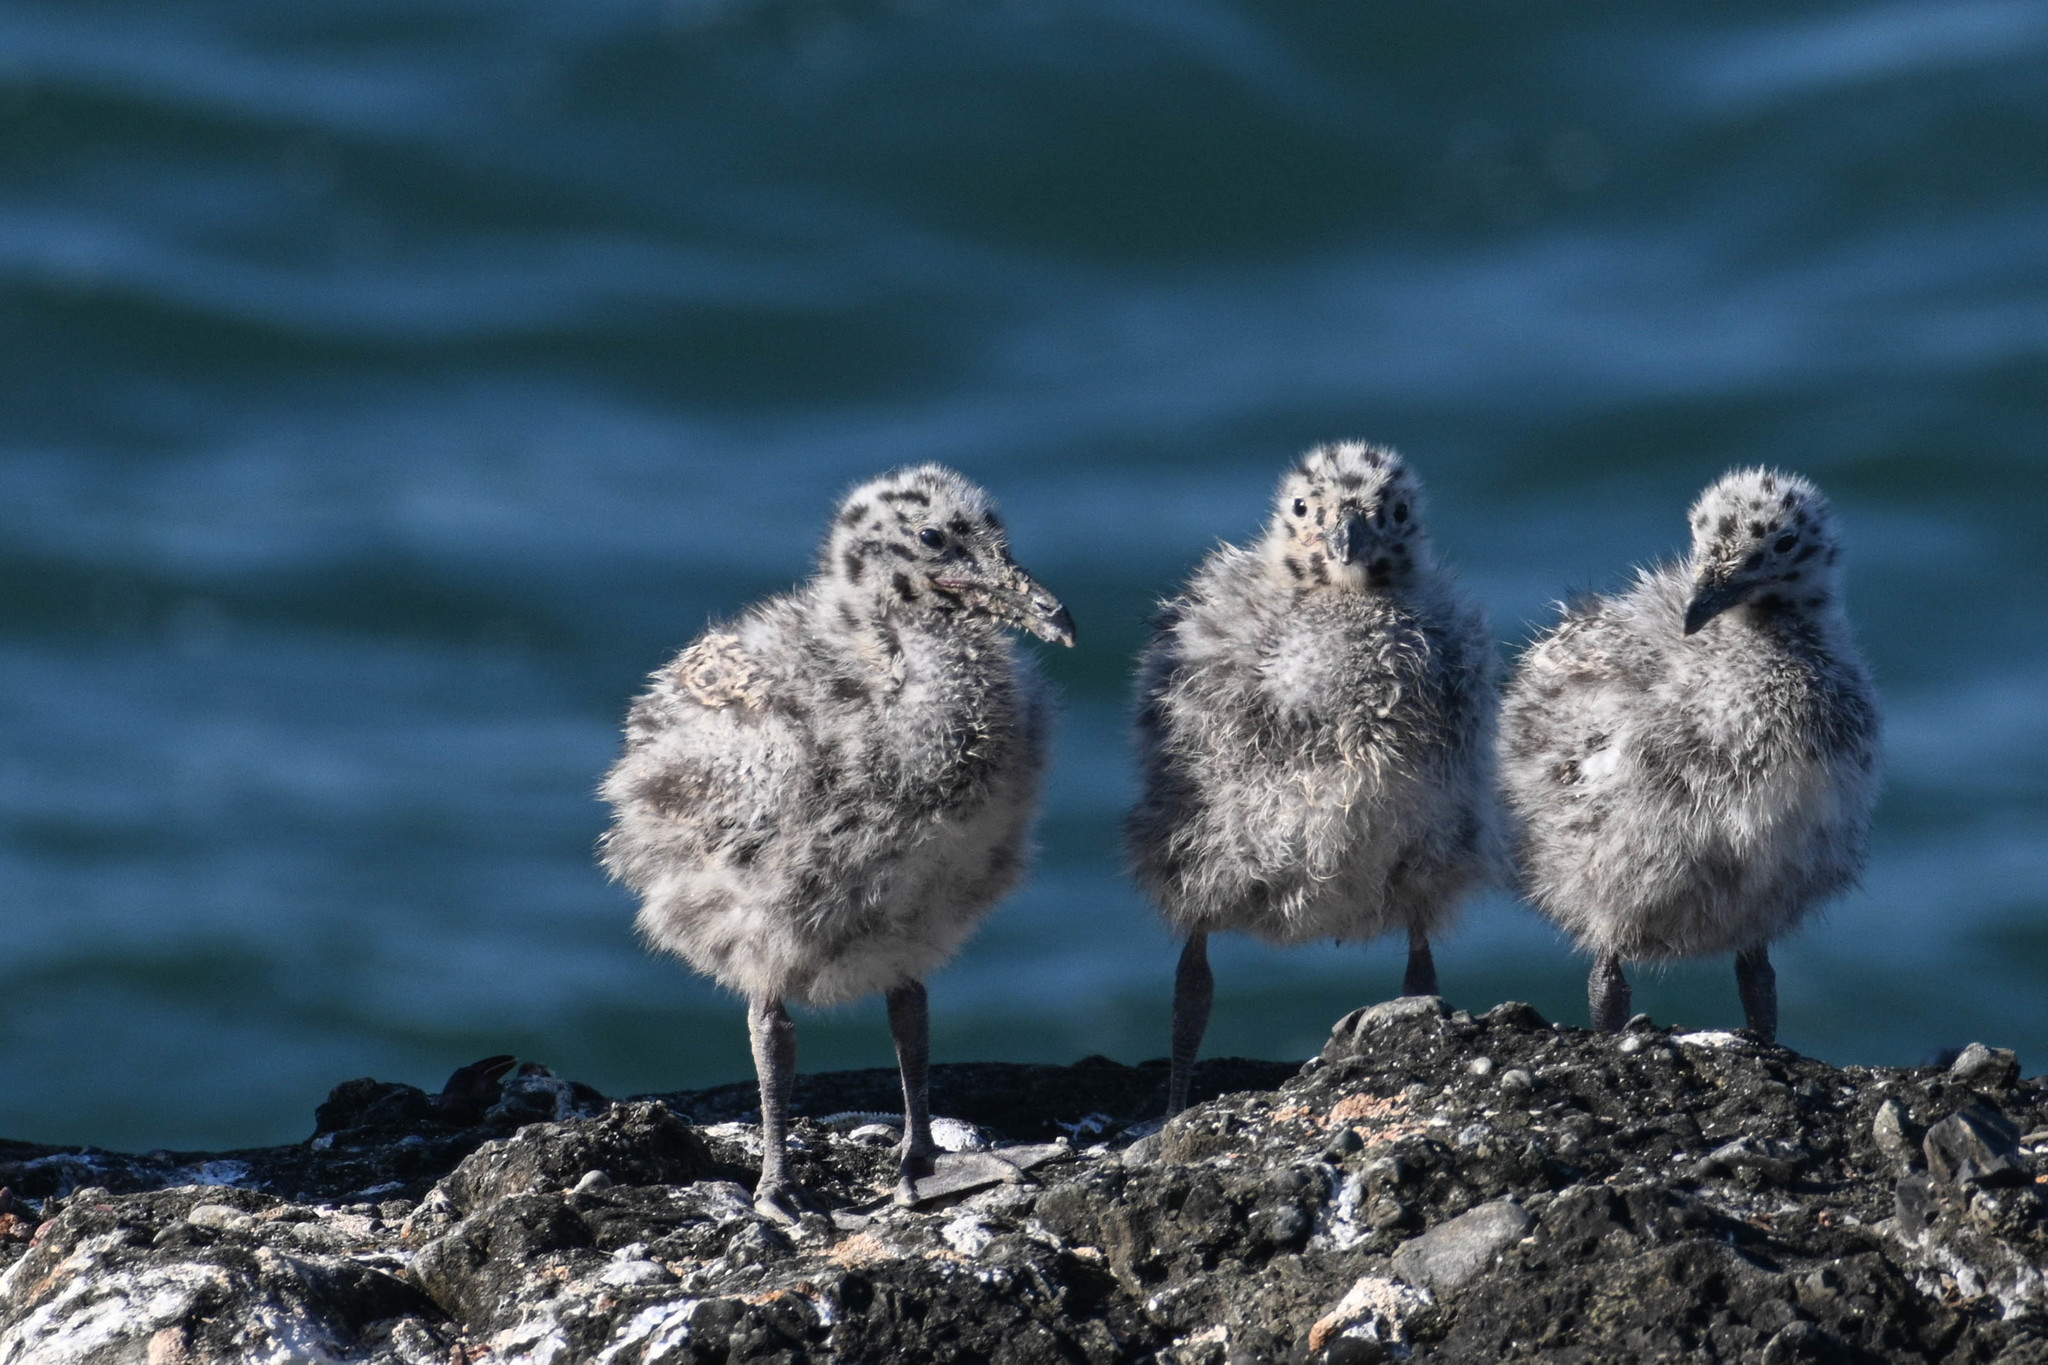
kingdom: Animalia
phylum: Chordata
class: Aves
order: Charadriiformes
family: Laridae
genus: Larus
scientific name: Larus occidentalis
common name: Western gull
